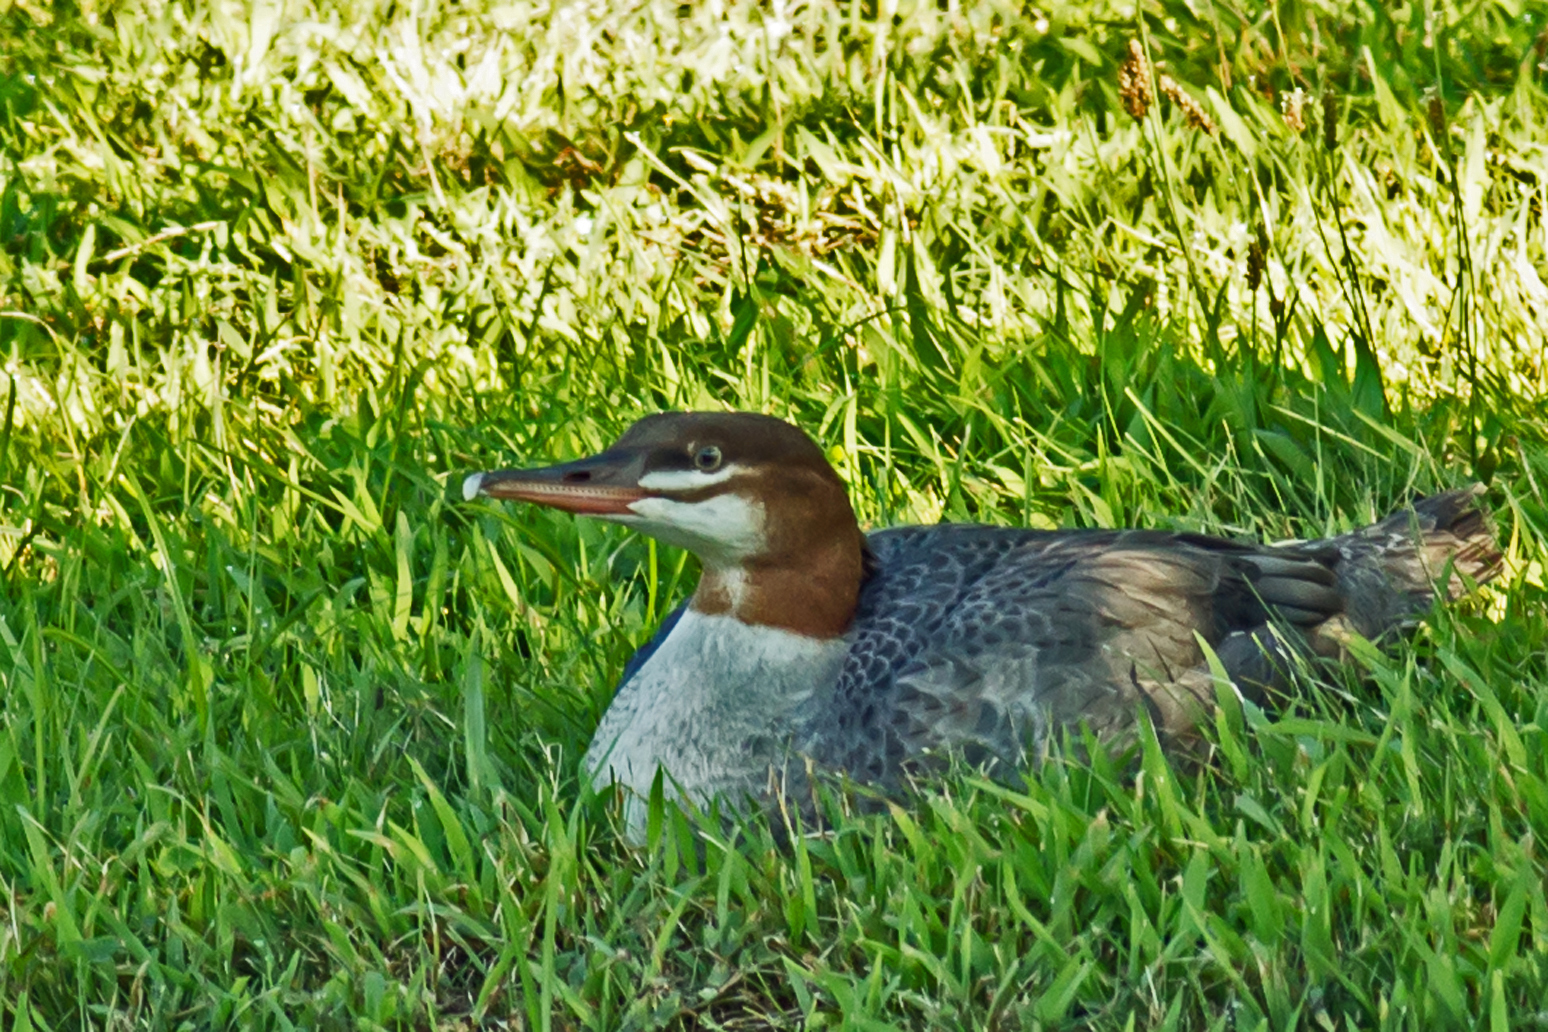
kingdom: Animalia
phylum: Chordata
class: Aves
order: Anseriformes
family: Anatidae
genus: Mergus
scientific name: Mergus merganser
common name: Common merganser
